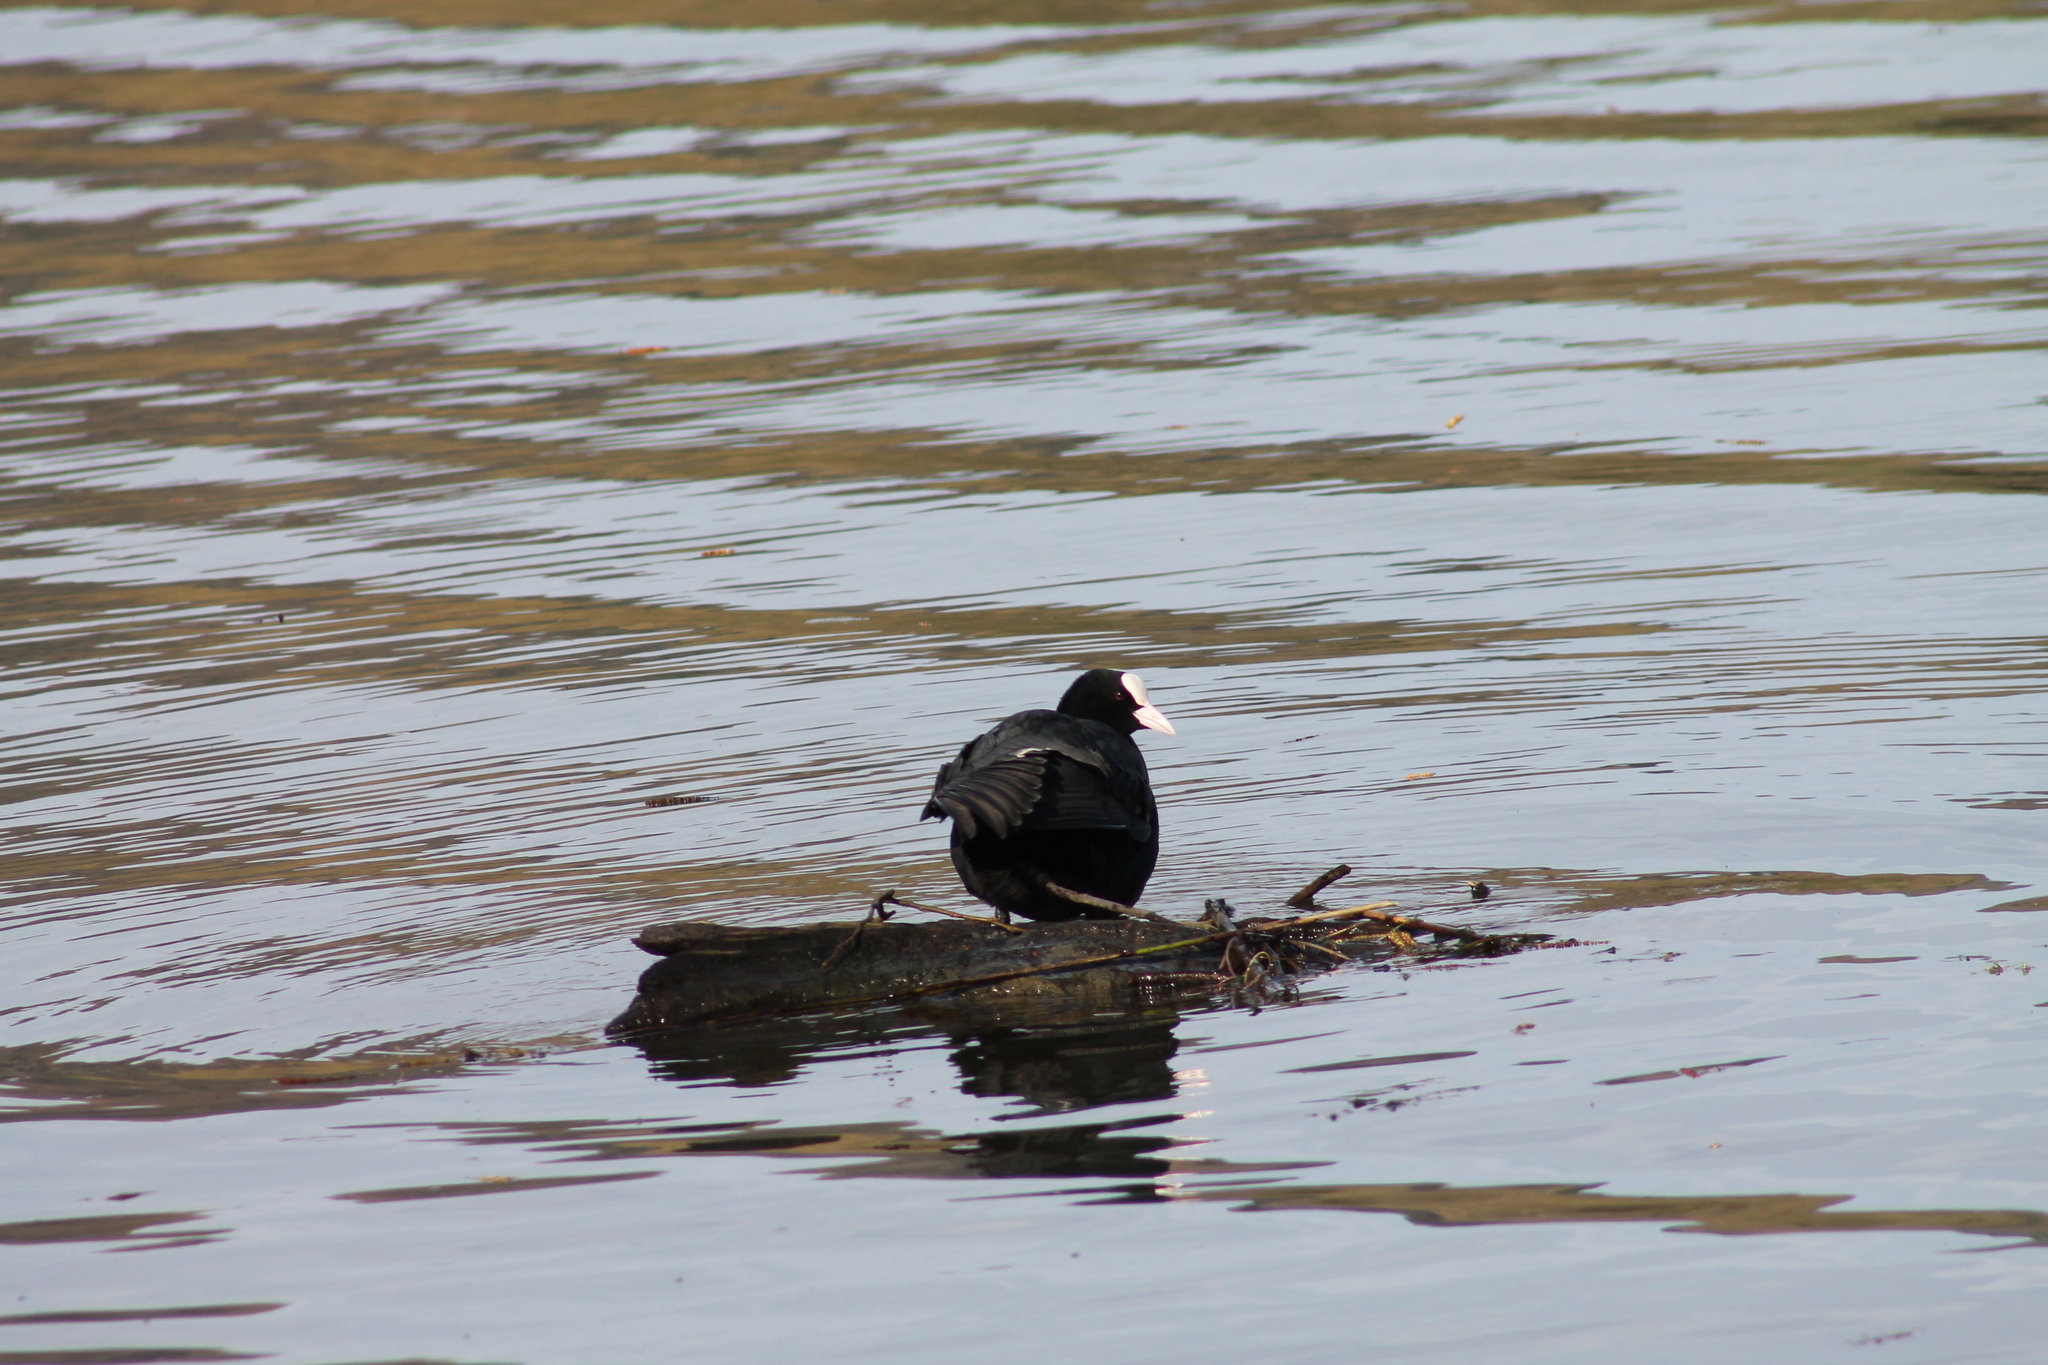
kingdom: Animalia
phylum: Chordata
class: Aves
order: Gruiformes
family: Rallidae
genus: Fulica
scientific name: Fulica atra
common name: Eurasian coot
